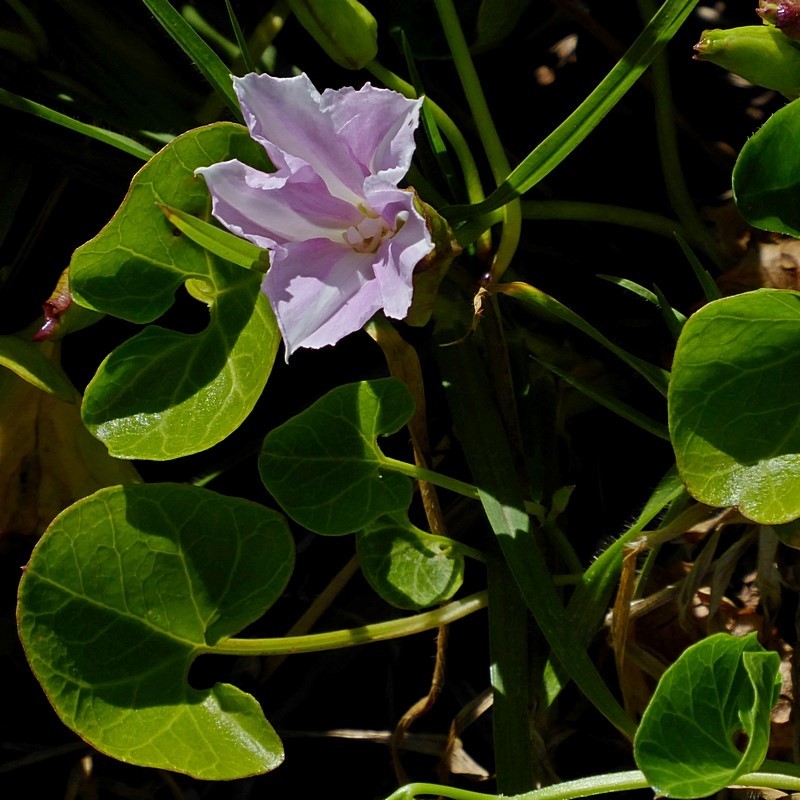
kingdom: Plantae
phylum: Tracheophyta
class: Magnoliopsida
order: Solanales
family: Convolvulaceae
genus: Calystegia
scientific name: Calystegia soldanella
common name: Sea bindweed
